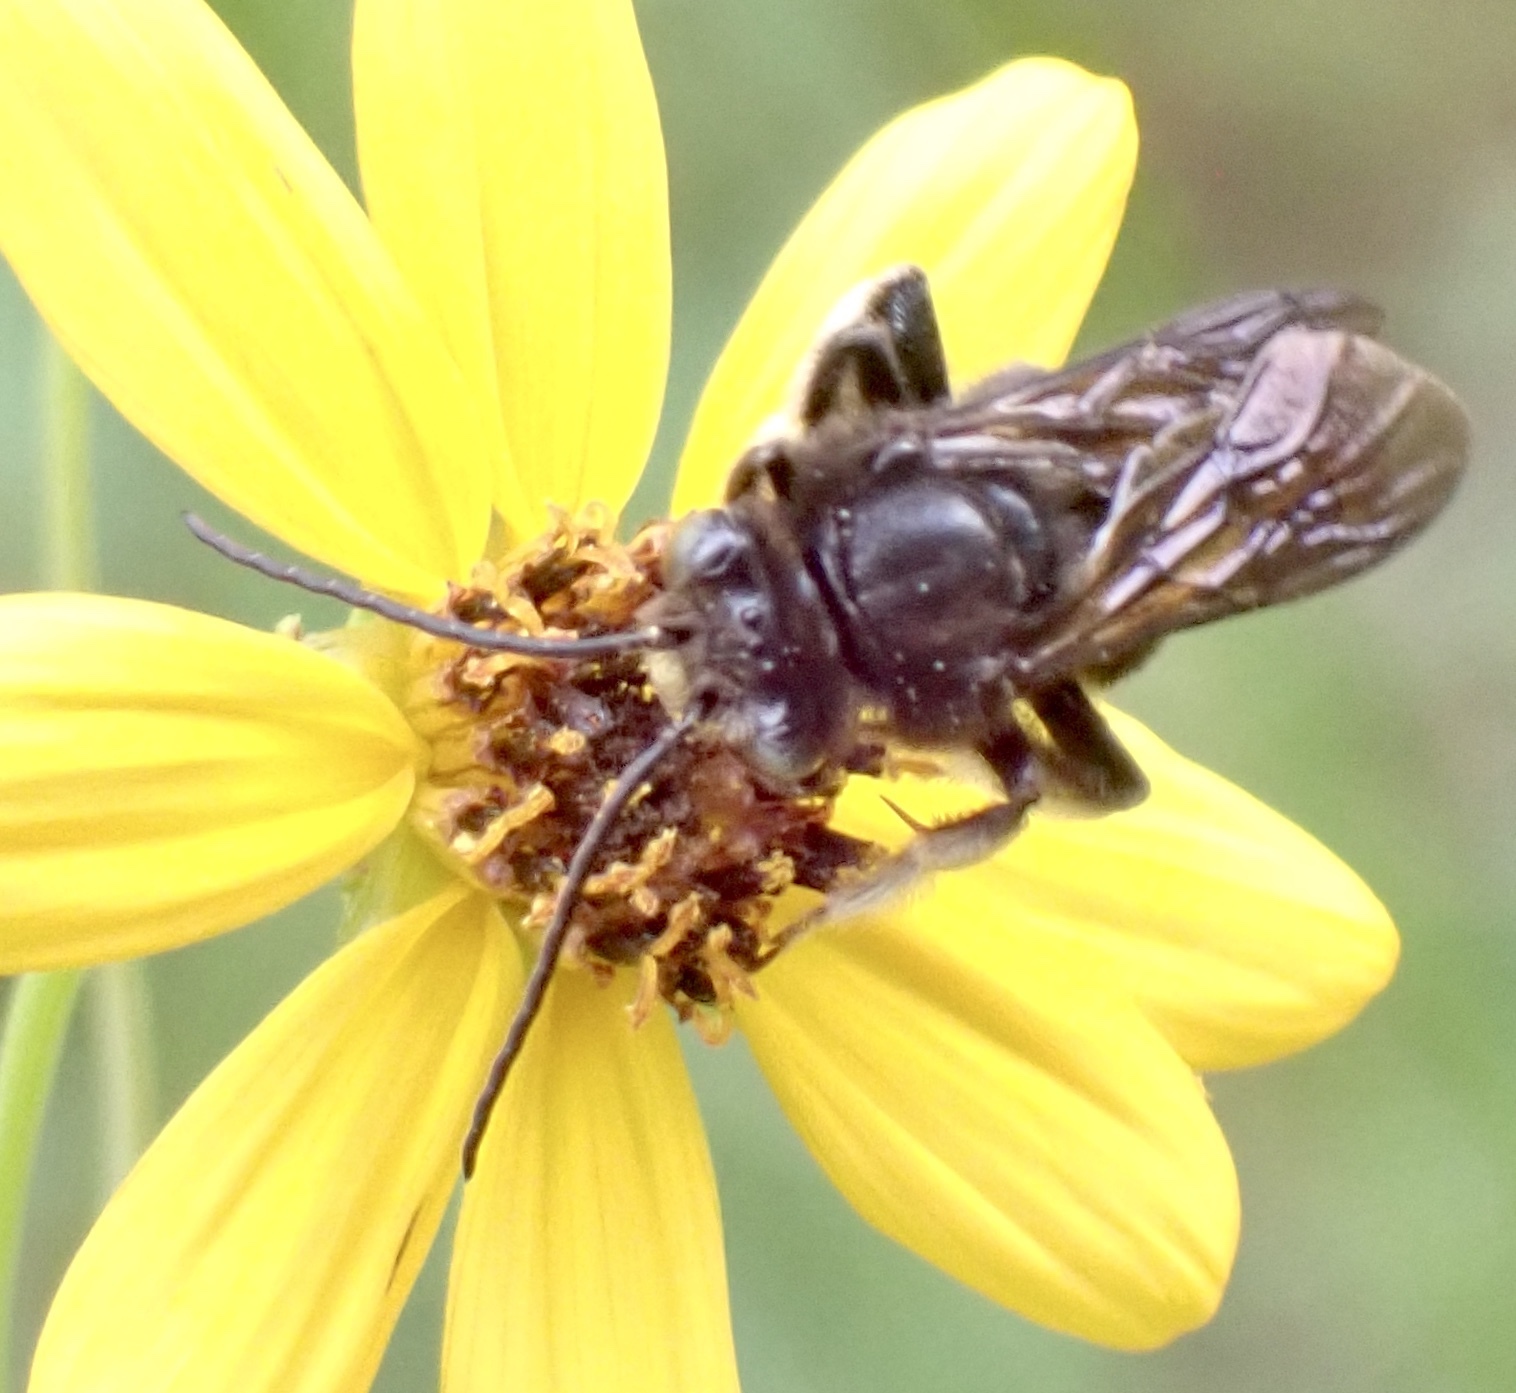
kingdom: Animalia
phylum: Arthropoda
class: Insecta
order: Hymenoptera
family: Apidae
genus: Melissodes
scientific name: Melissodes bimaculatus
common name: Two-spotted long-horned bee
